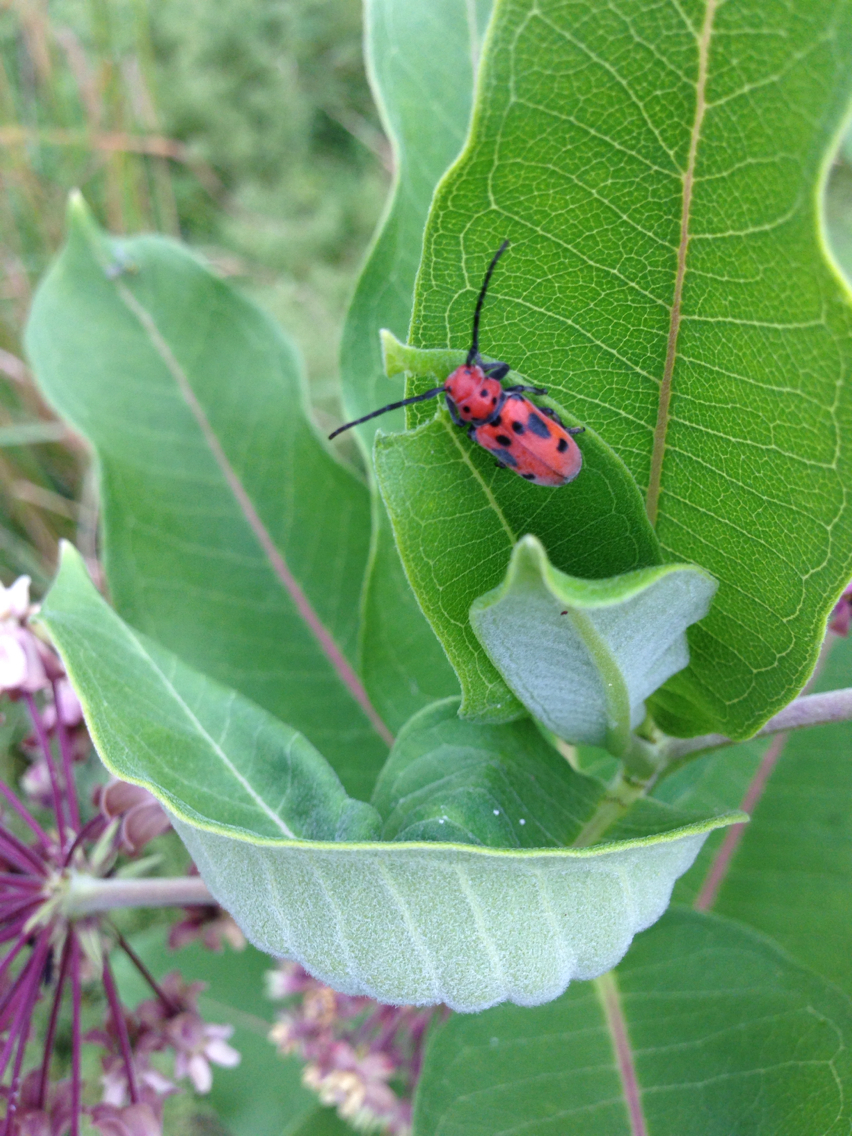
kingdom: Animalia
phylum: Arthropoda
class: Insecta
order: Coleoptera
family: Cerambycidae
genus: Tetraopes
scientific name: Tetraopes tetrophthalmus
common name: Red milkweed beetle
